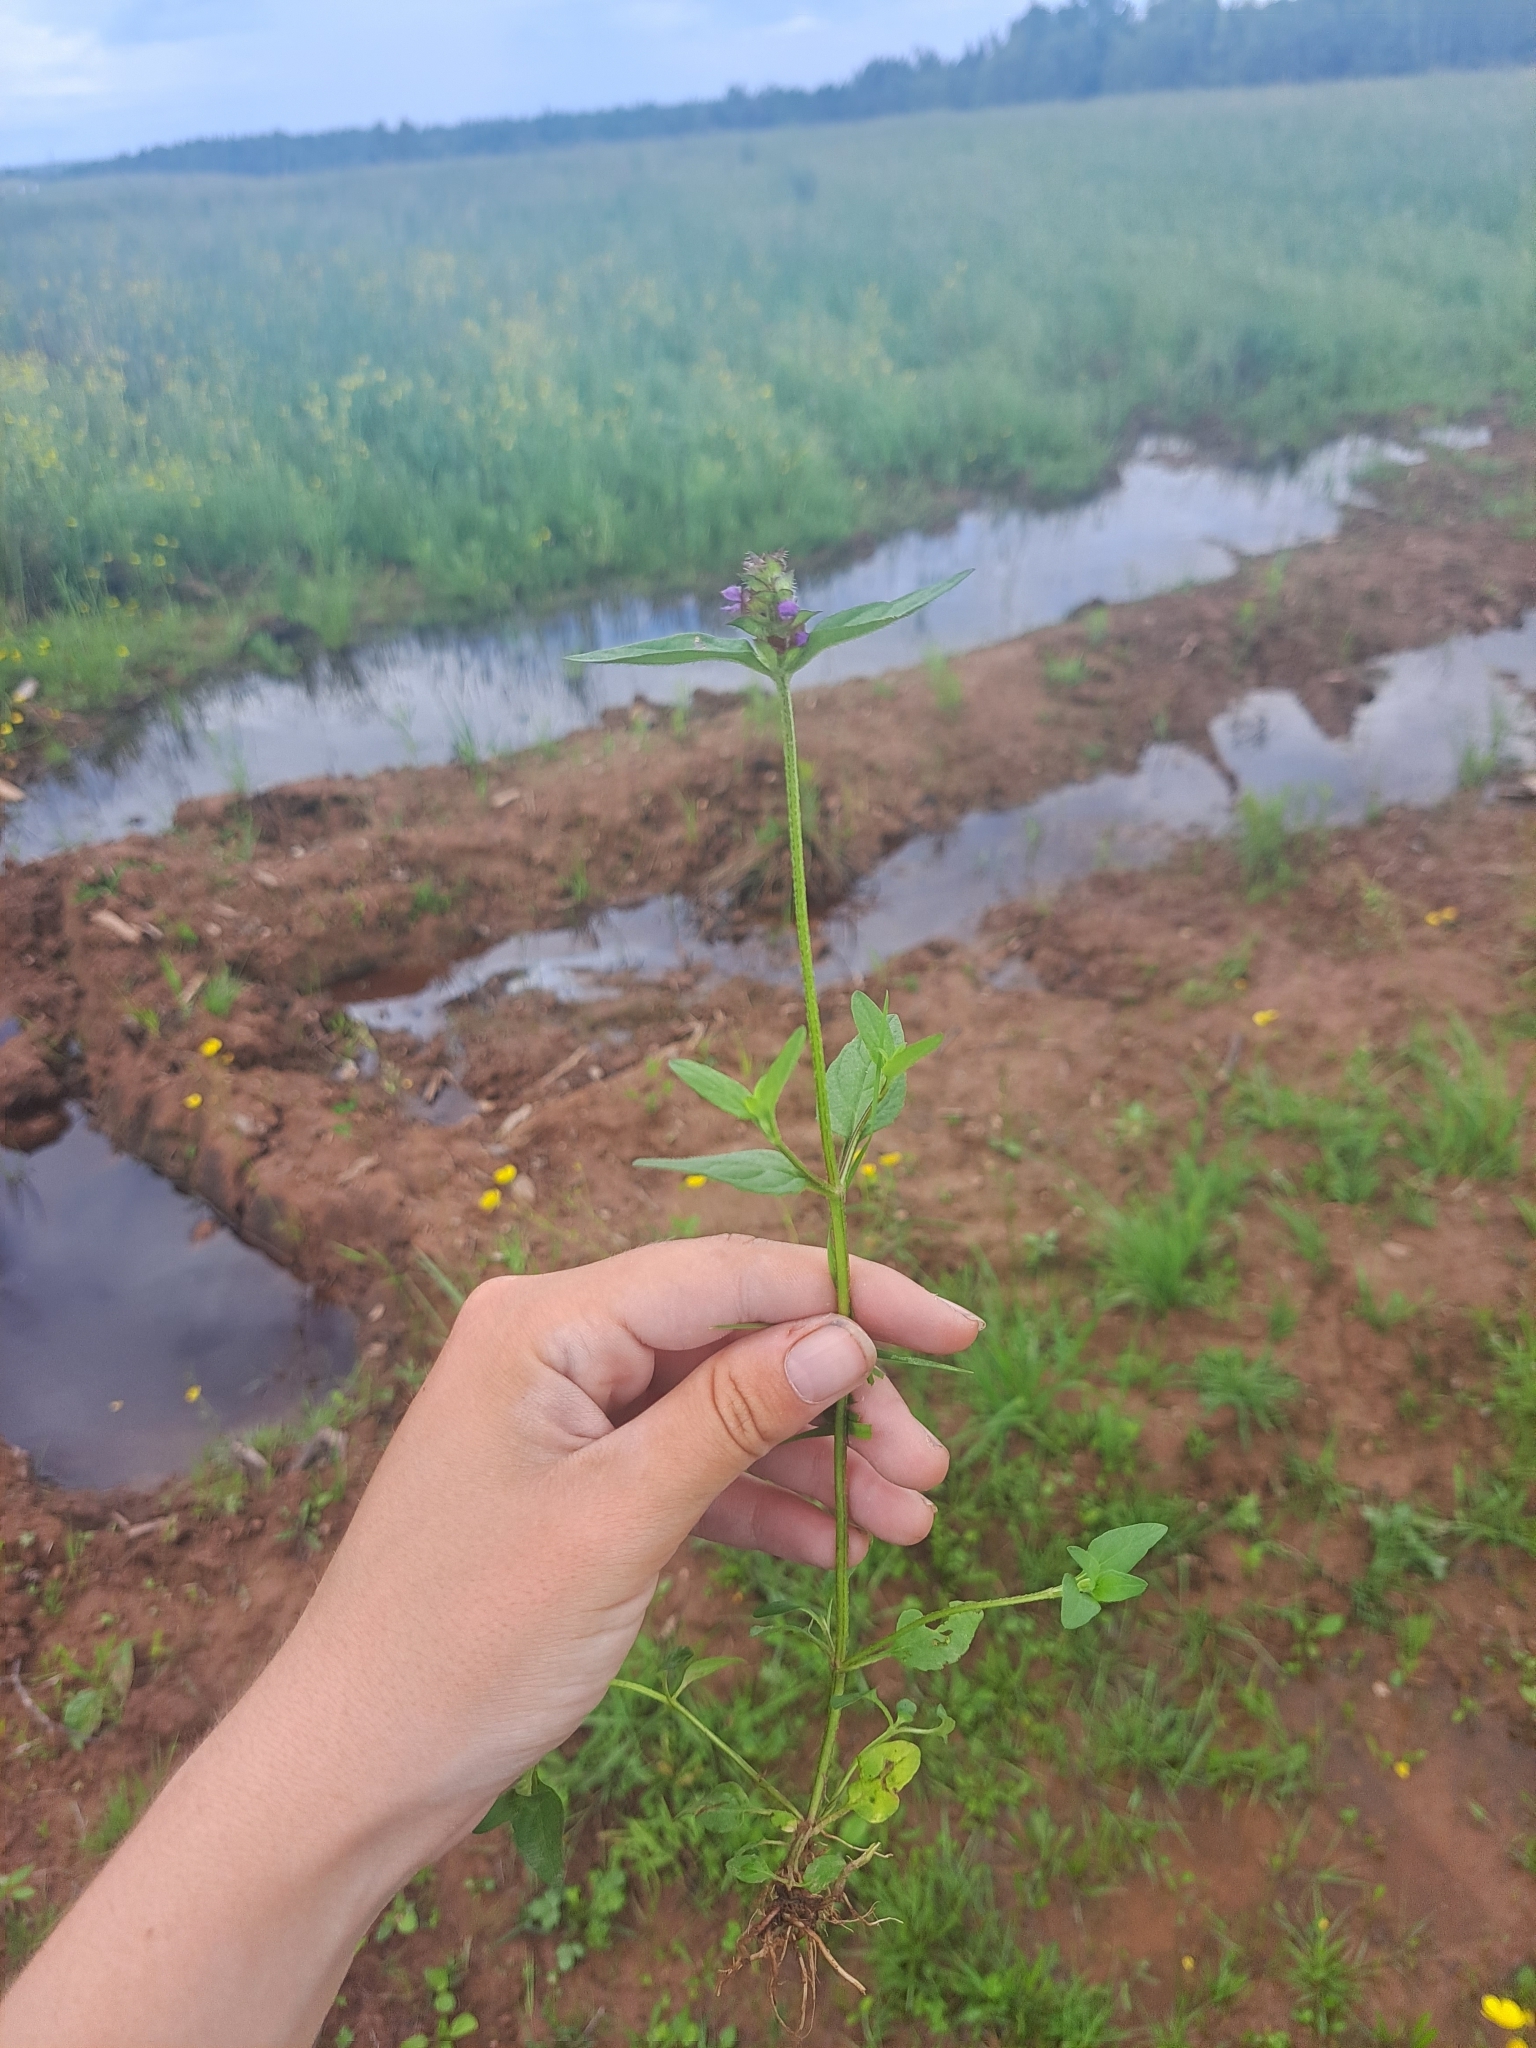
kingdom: Plantae
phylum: Tracheophyta
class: Magnoliopsida
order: Lamiales
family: Lamiaceae
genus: Prunella
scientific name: Prunella vulgaris
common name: Heal-all
